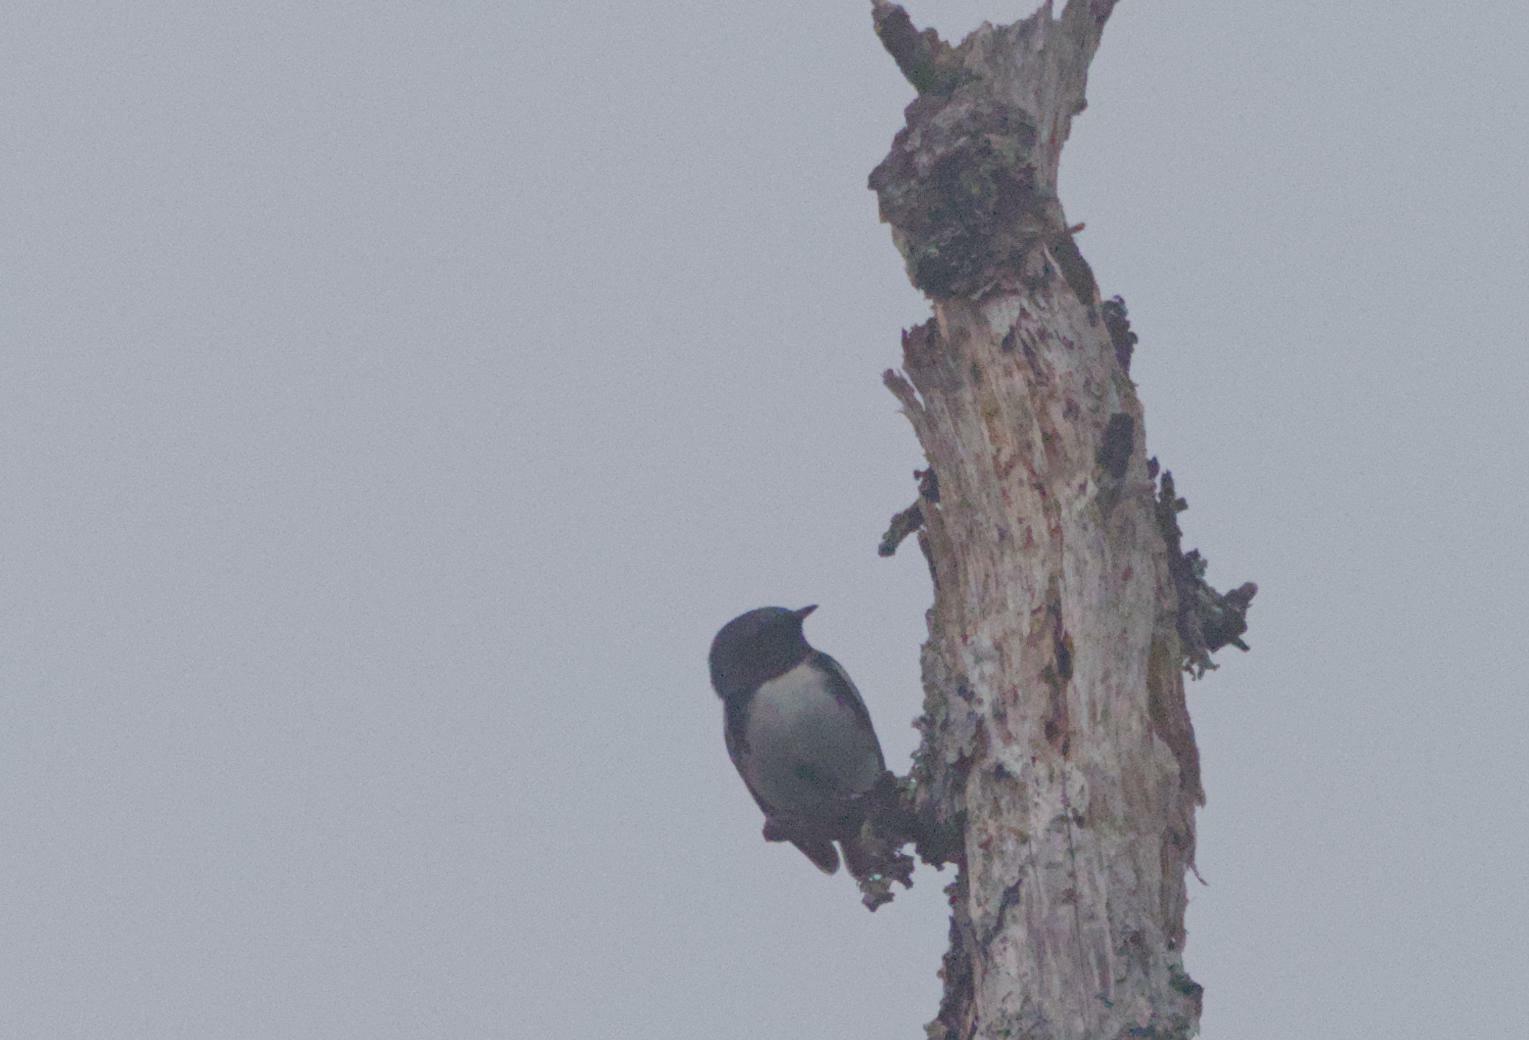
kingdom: Animalia
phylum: Chordata
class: Aves
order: Passeriformes
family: Parulidae
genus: Setophaga
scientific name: Setophaga caerulescens
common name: Black-throated blue warbler
